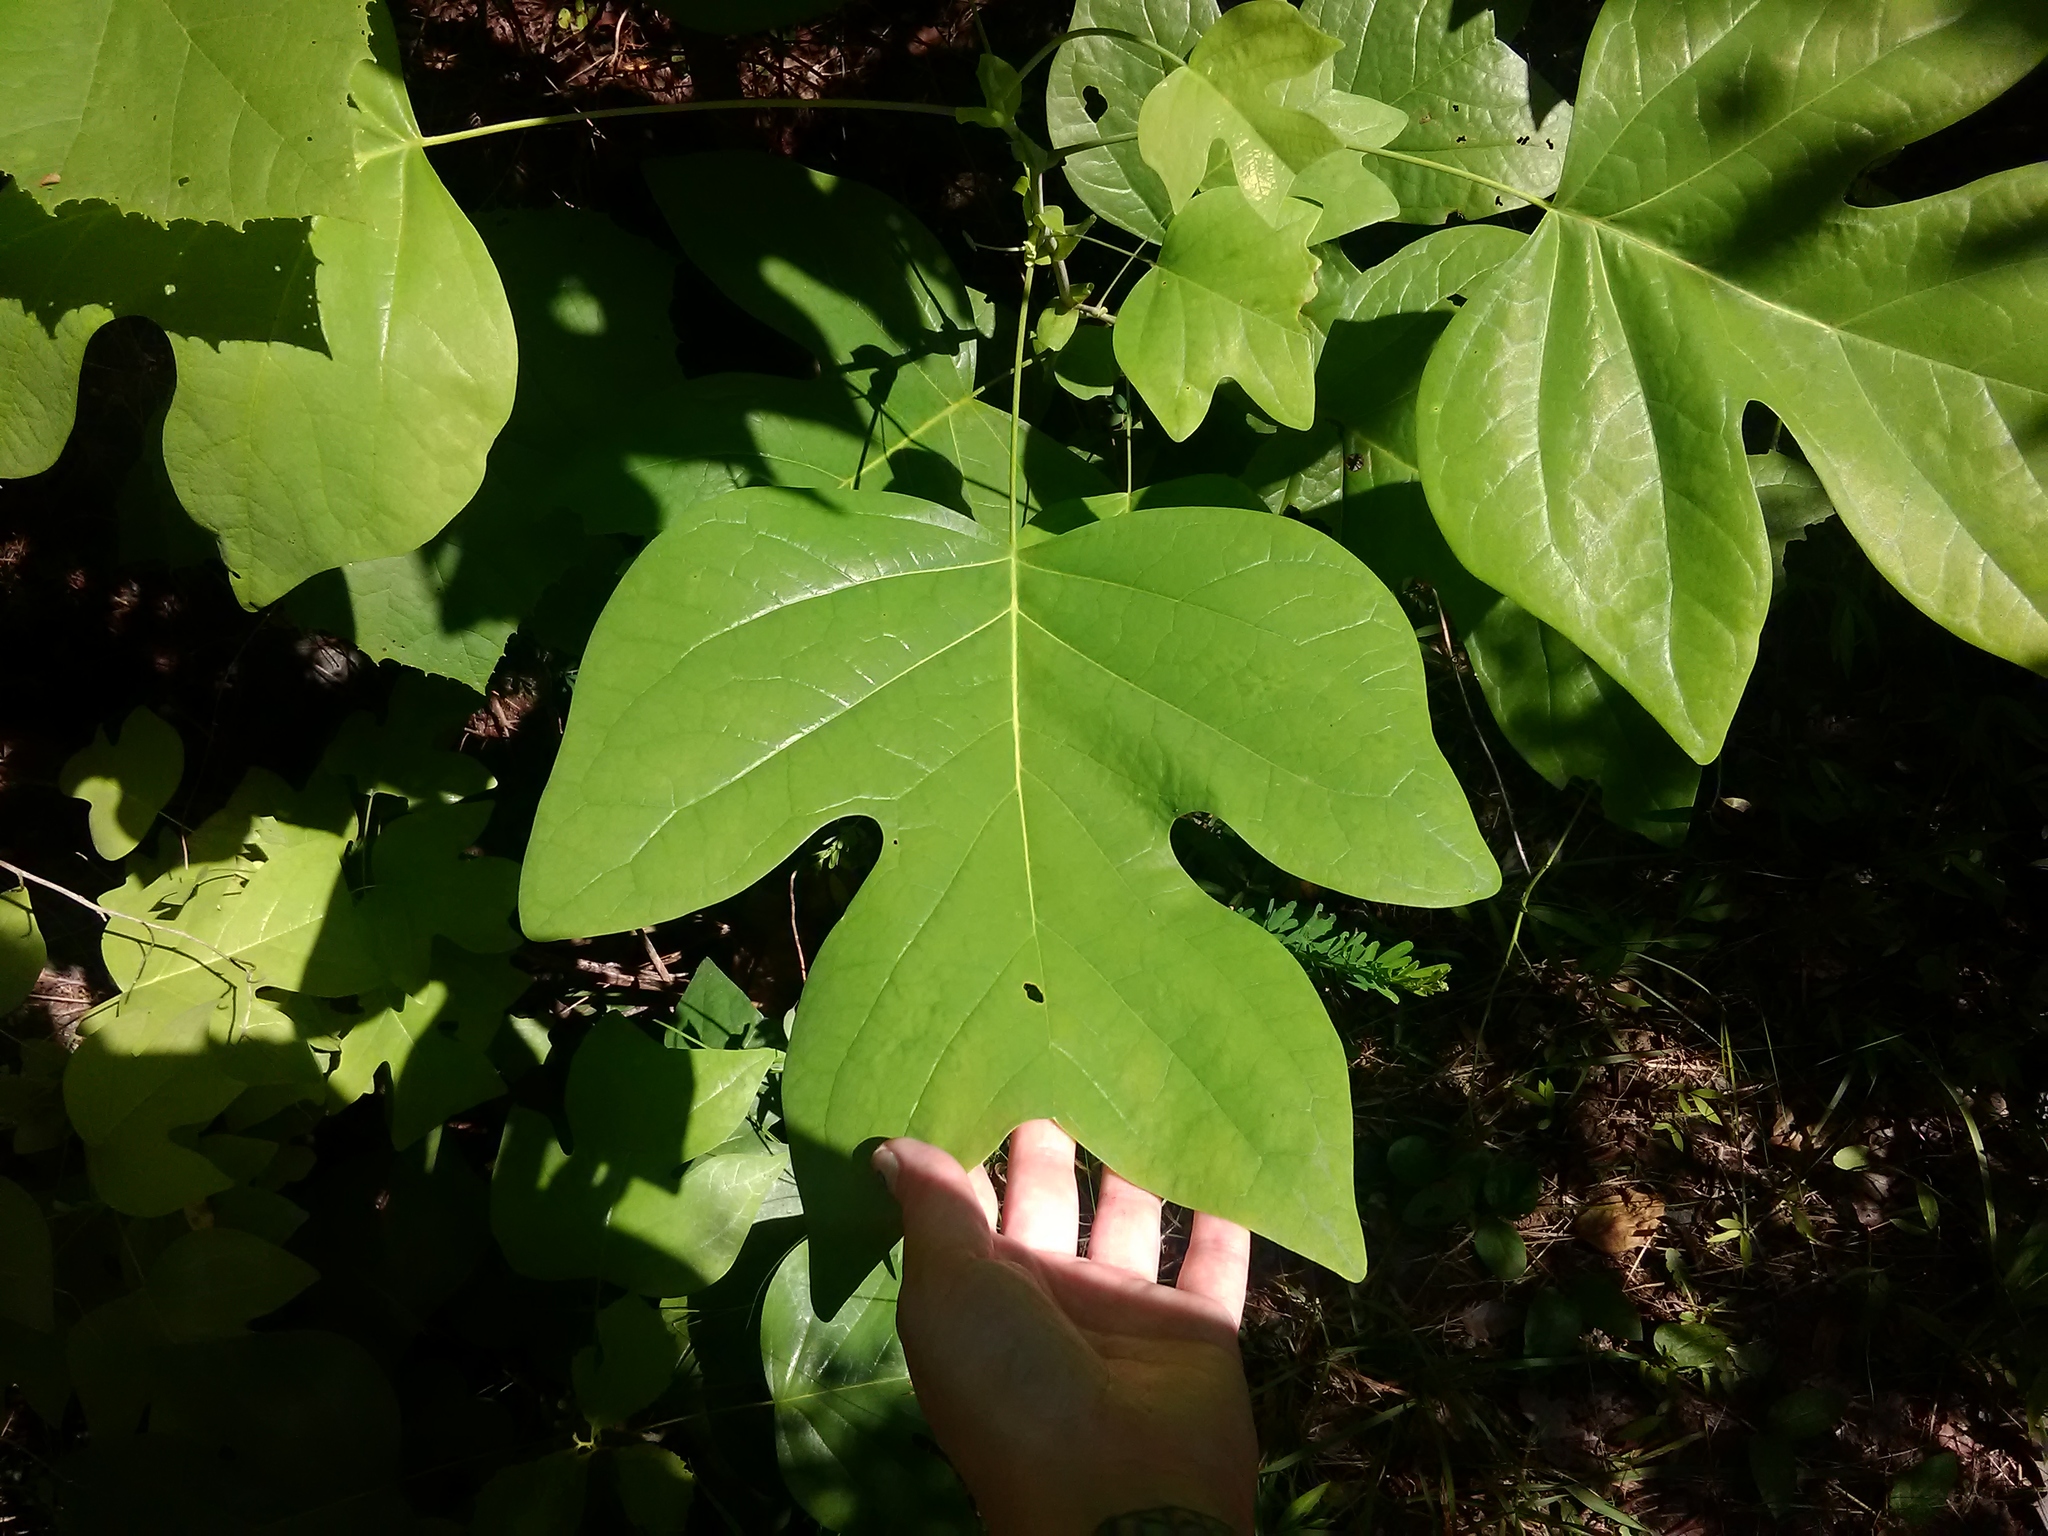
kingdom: Plantae
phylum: Tracheophyta
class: Magnoliopsida
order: Magnoliales
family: Magnoliaceae
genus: Liriodendron
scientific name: Liriodendron tulipifera
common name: Tulip tree
